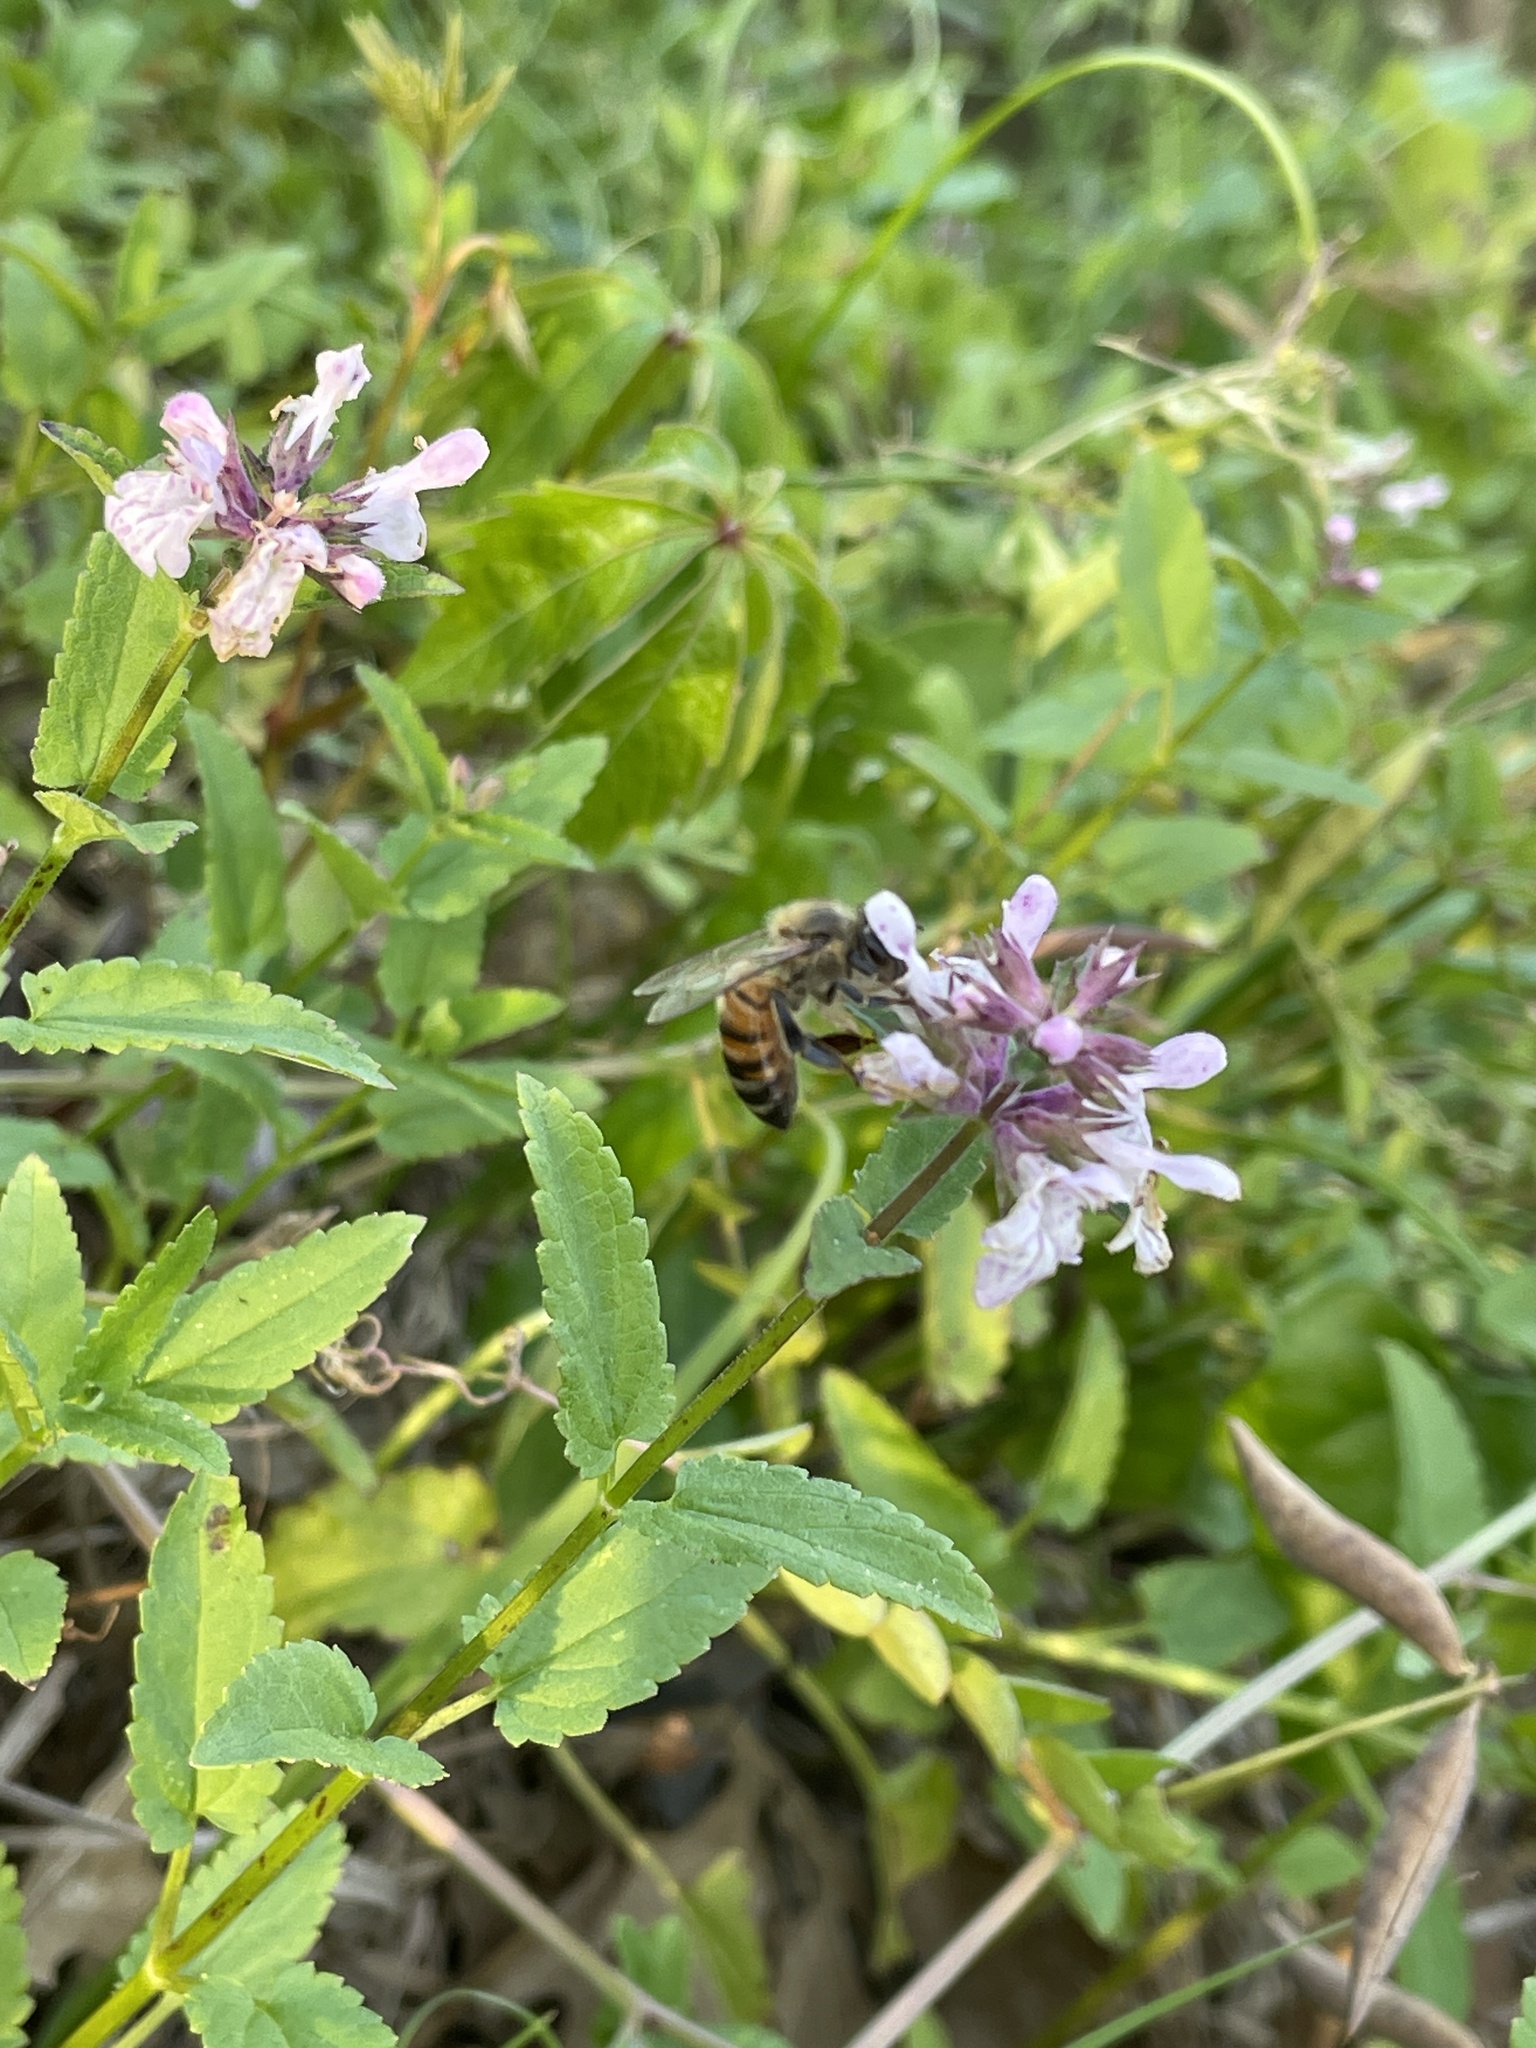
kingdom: Animalia
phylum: Arthropoda
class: Insecta
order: Hymenoptera
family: Apidae
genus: Apis
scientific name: Apis mellifera
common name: Honey bee
